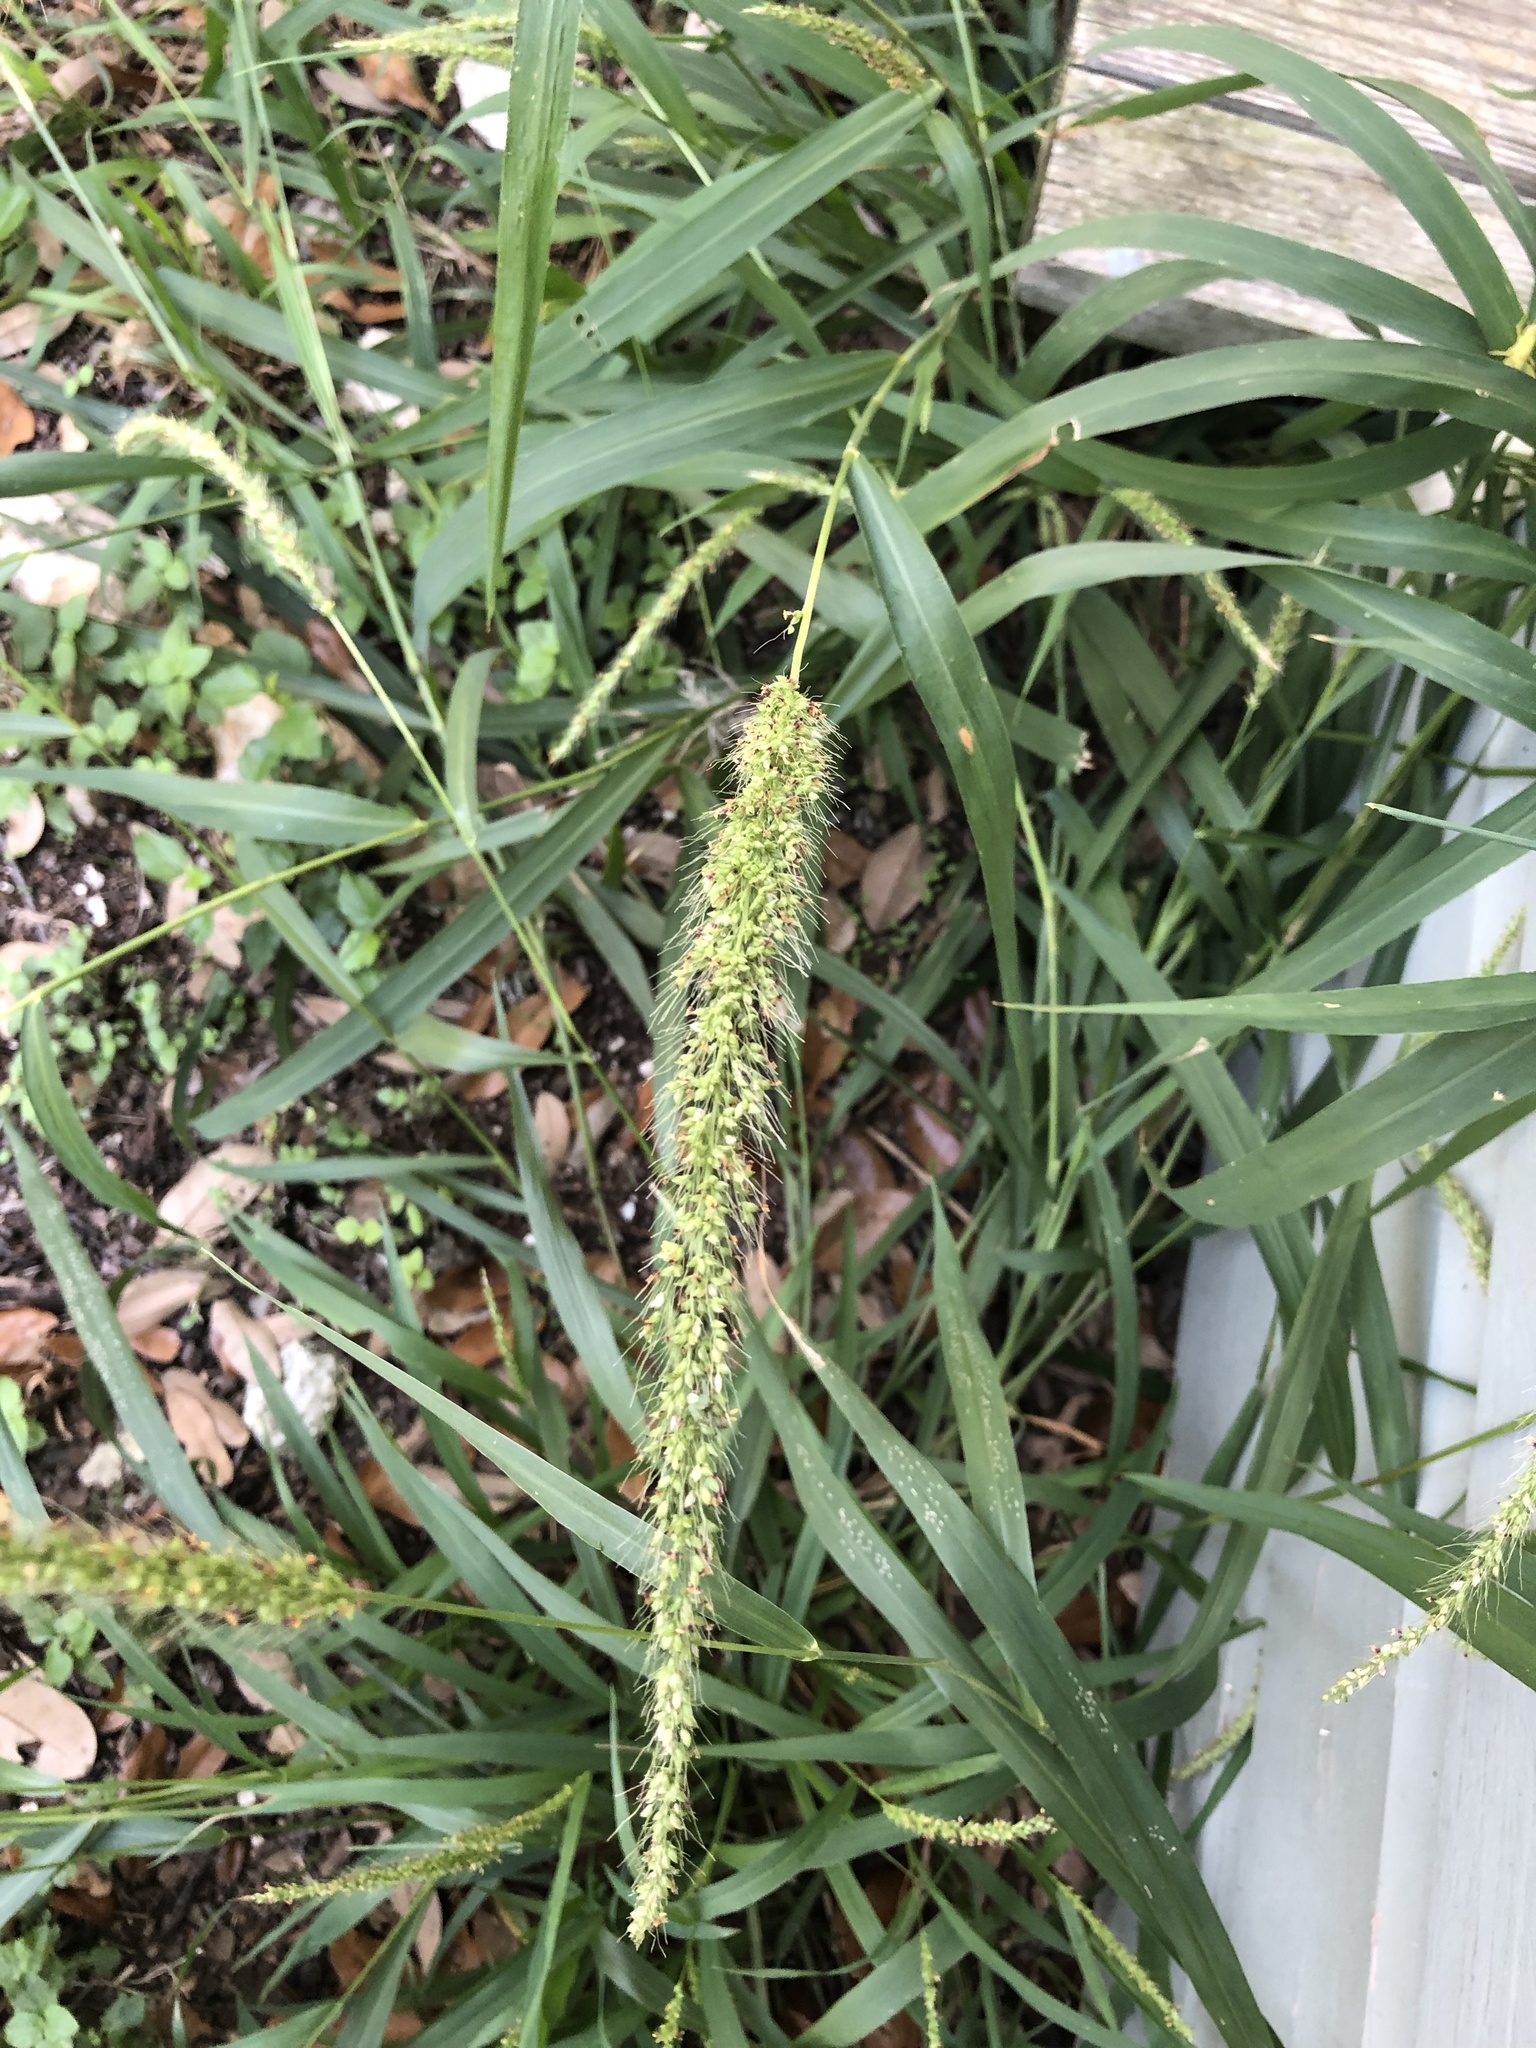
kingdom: Plantae
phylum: Tracheophyta
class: Liliopsida
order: Poales
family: Poaceae
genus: Setaria
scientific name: Setaria scheelei
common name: Southwestern bristle grass
